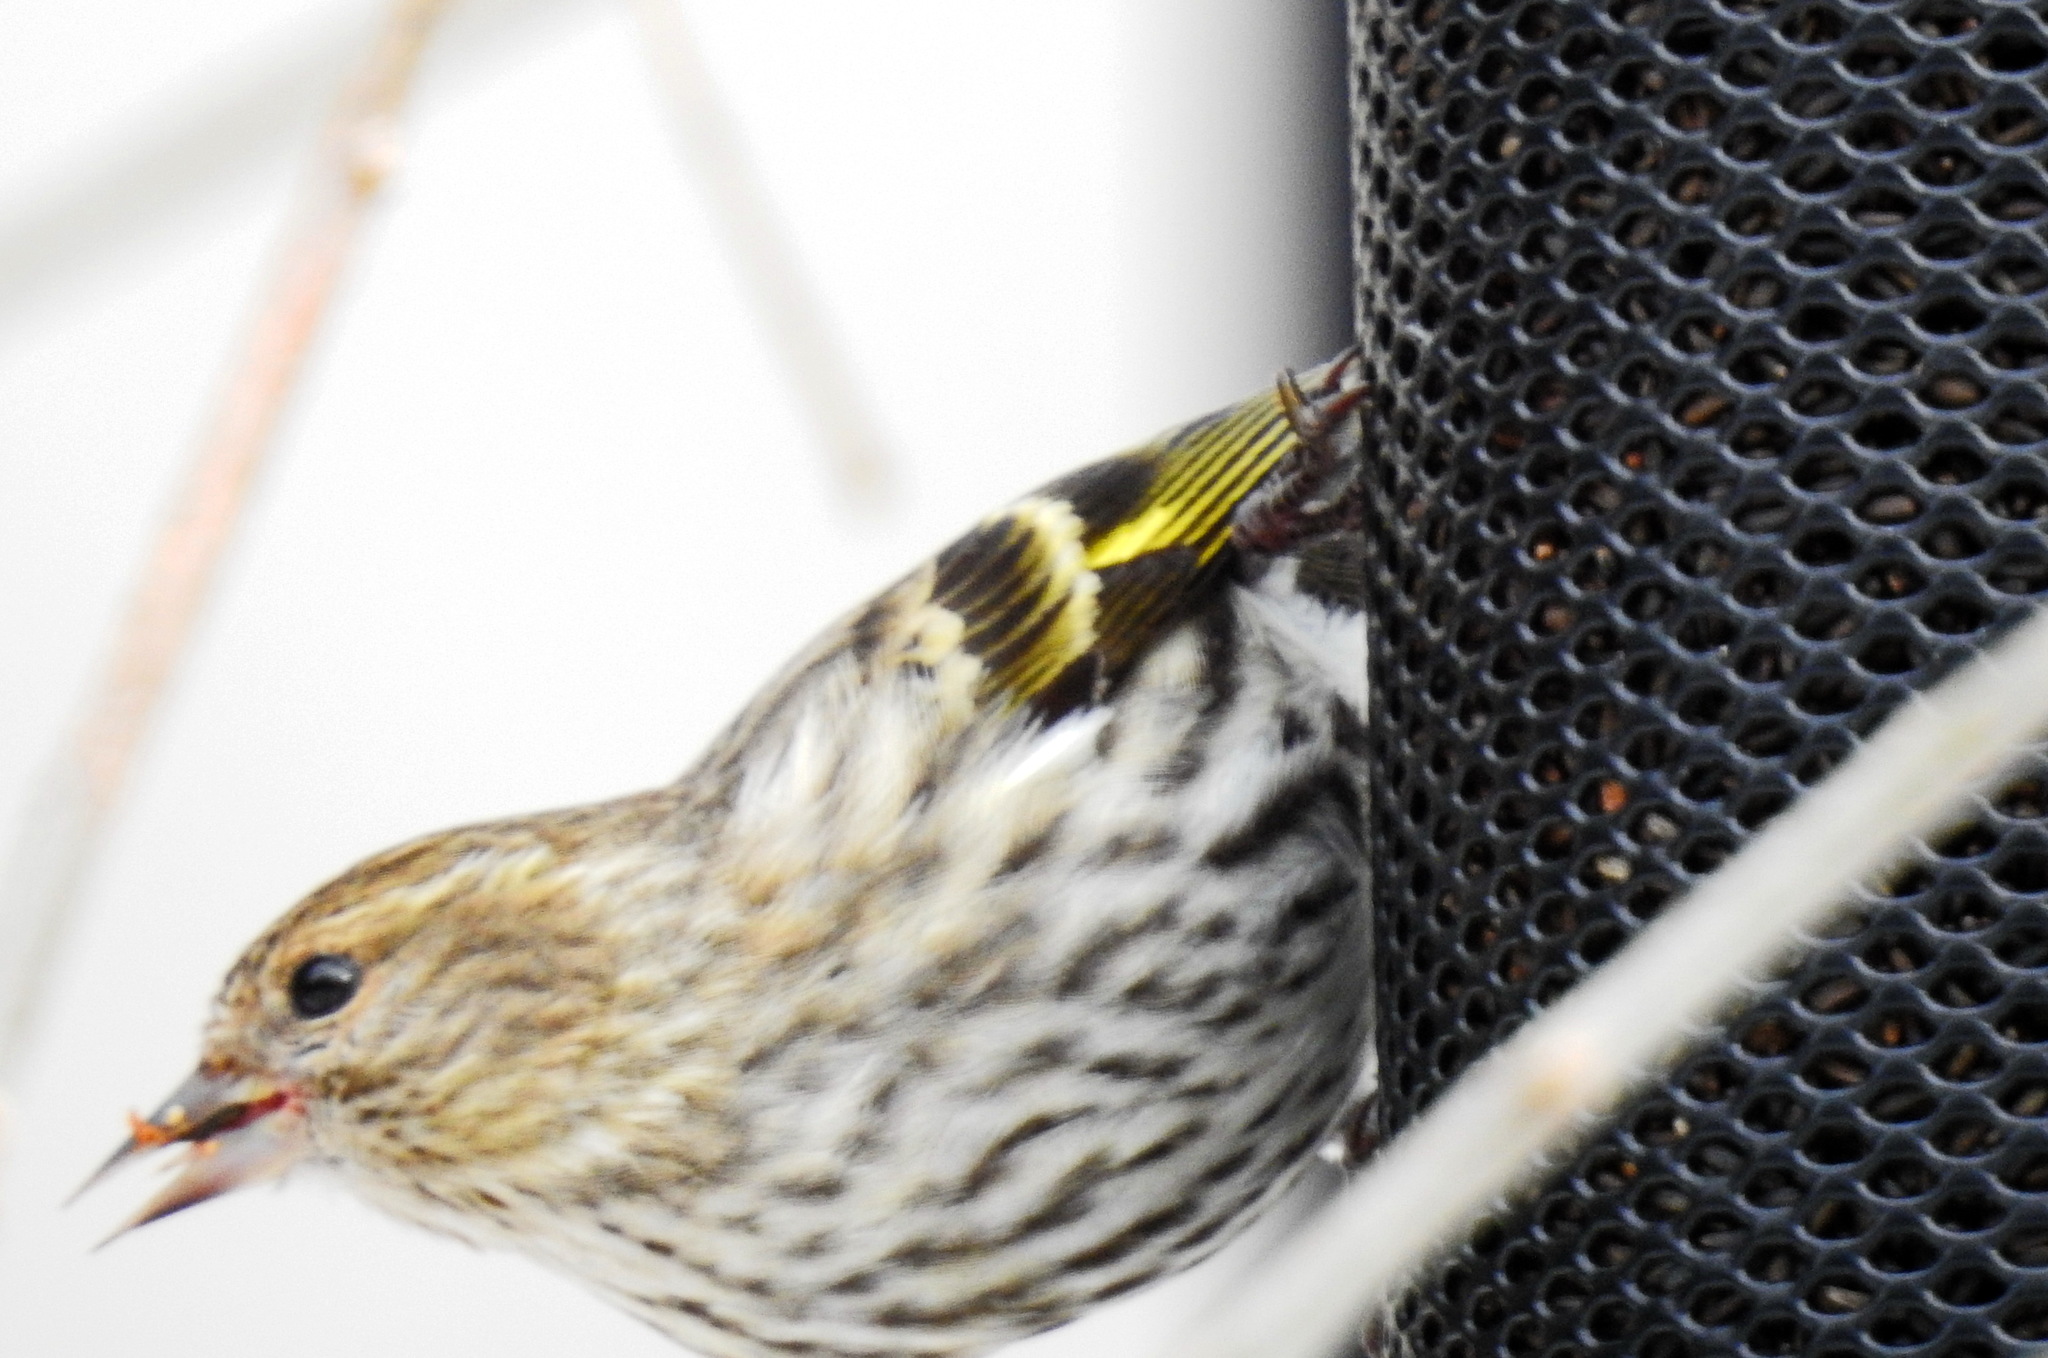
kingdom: Animalia
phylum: Chordata
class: Aves
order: Passeriformes
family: Fringillidae
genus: Spinus
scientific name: Spinus pinus
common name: Pine siskin
